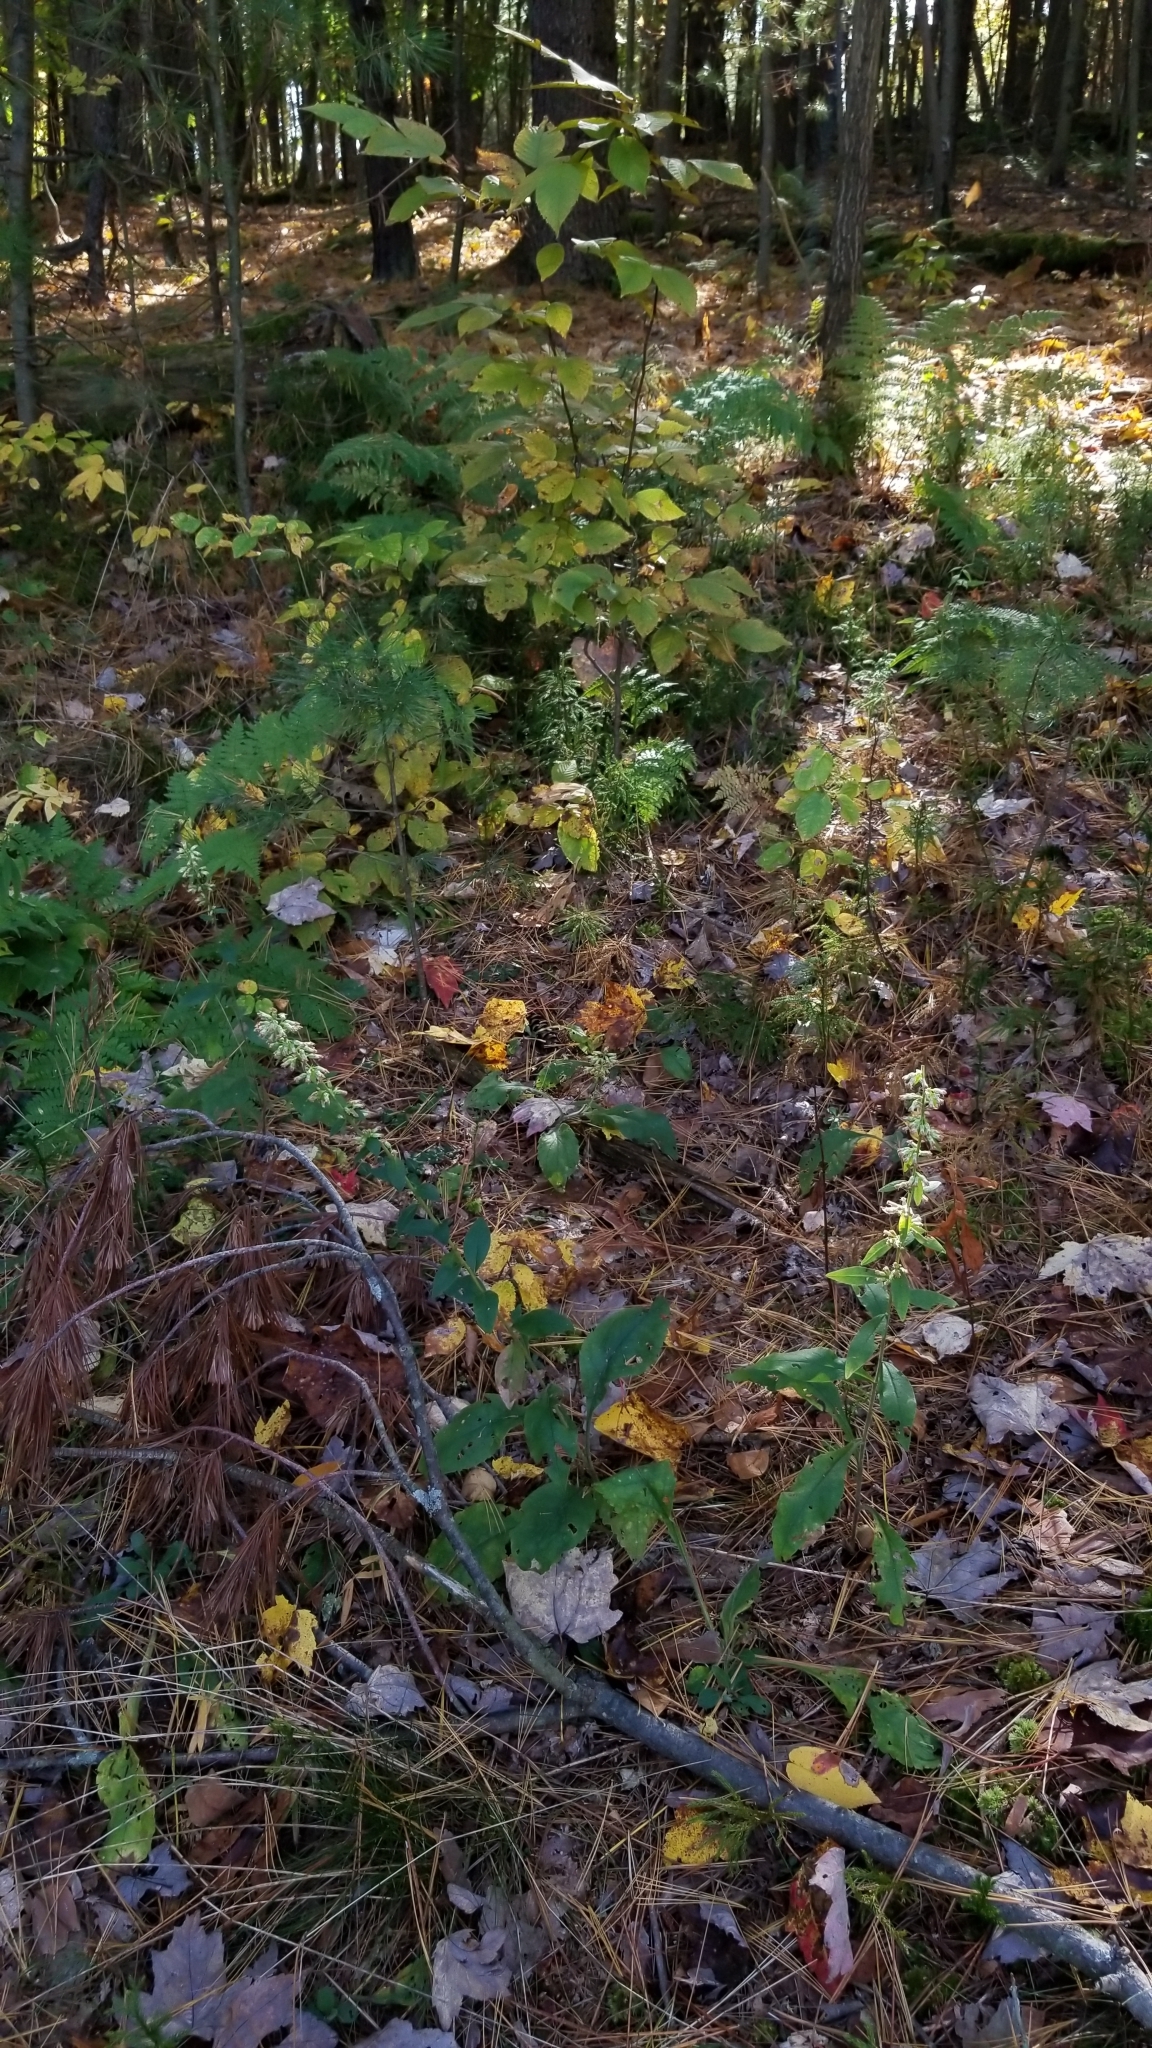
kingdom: Plantae
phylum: Tracheophyta
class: Magnoliopsida
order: Asterales
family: Asteraceae
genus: Solidago
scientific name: Solidago bicolor
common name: Silverrod
